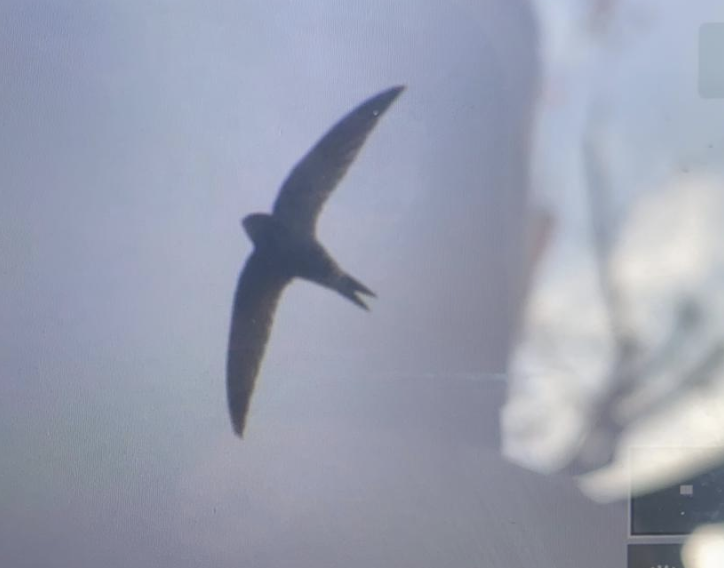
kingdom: Animalia
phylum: Chordata
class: Aves
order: Apodiformes
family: Apodidae
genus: Apus
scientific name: Apus apus
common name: Common swift
